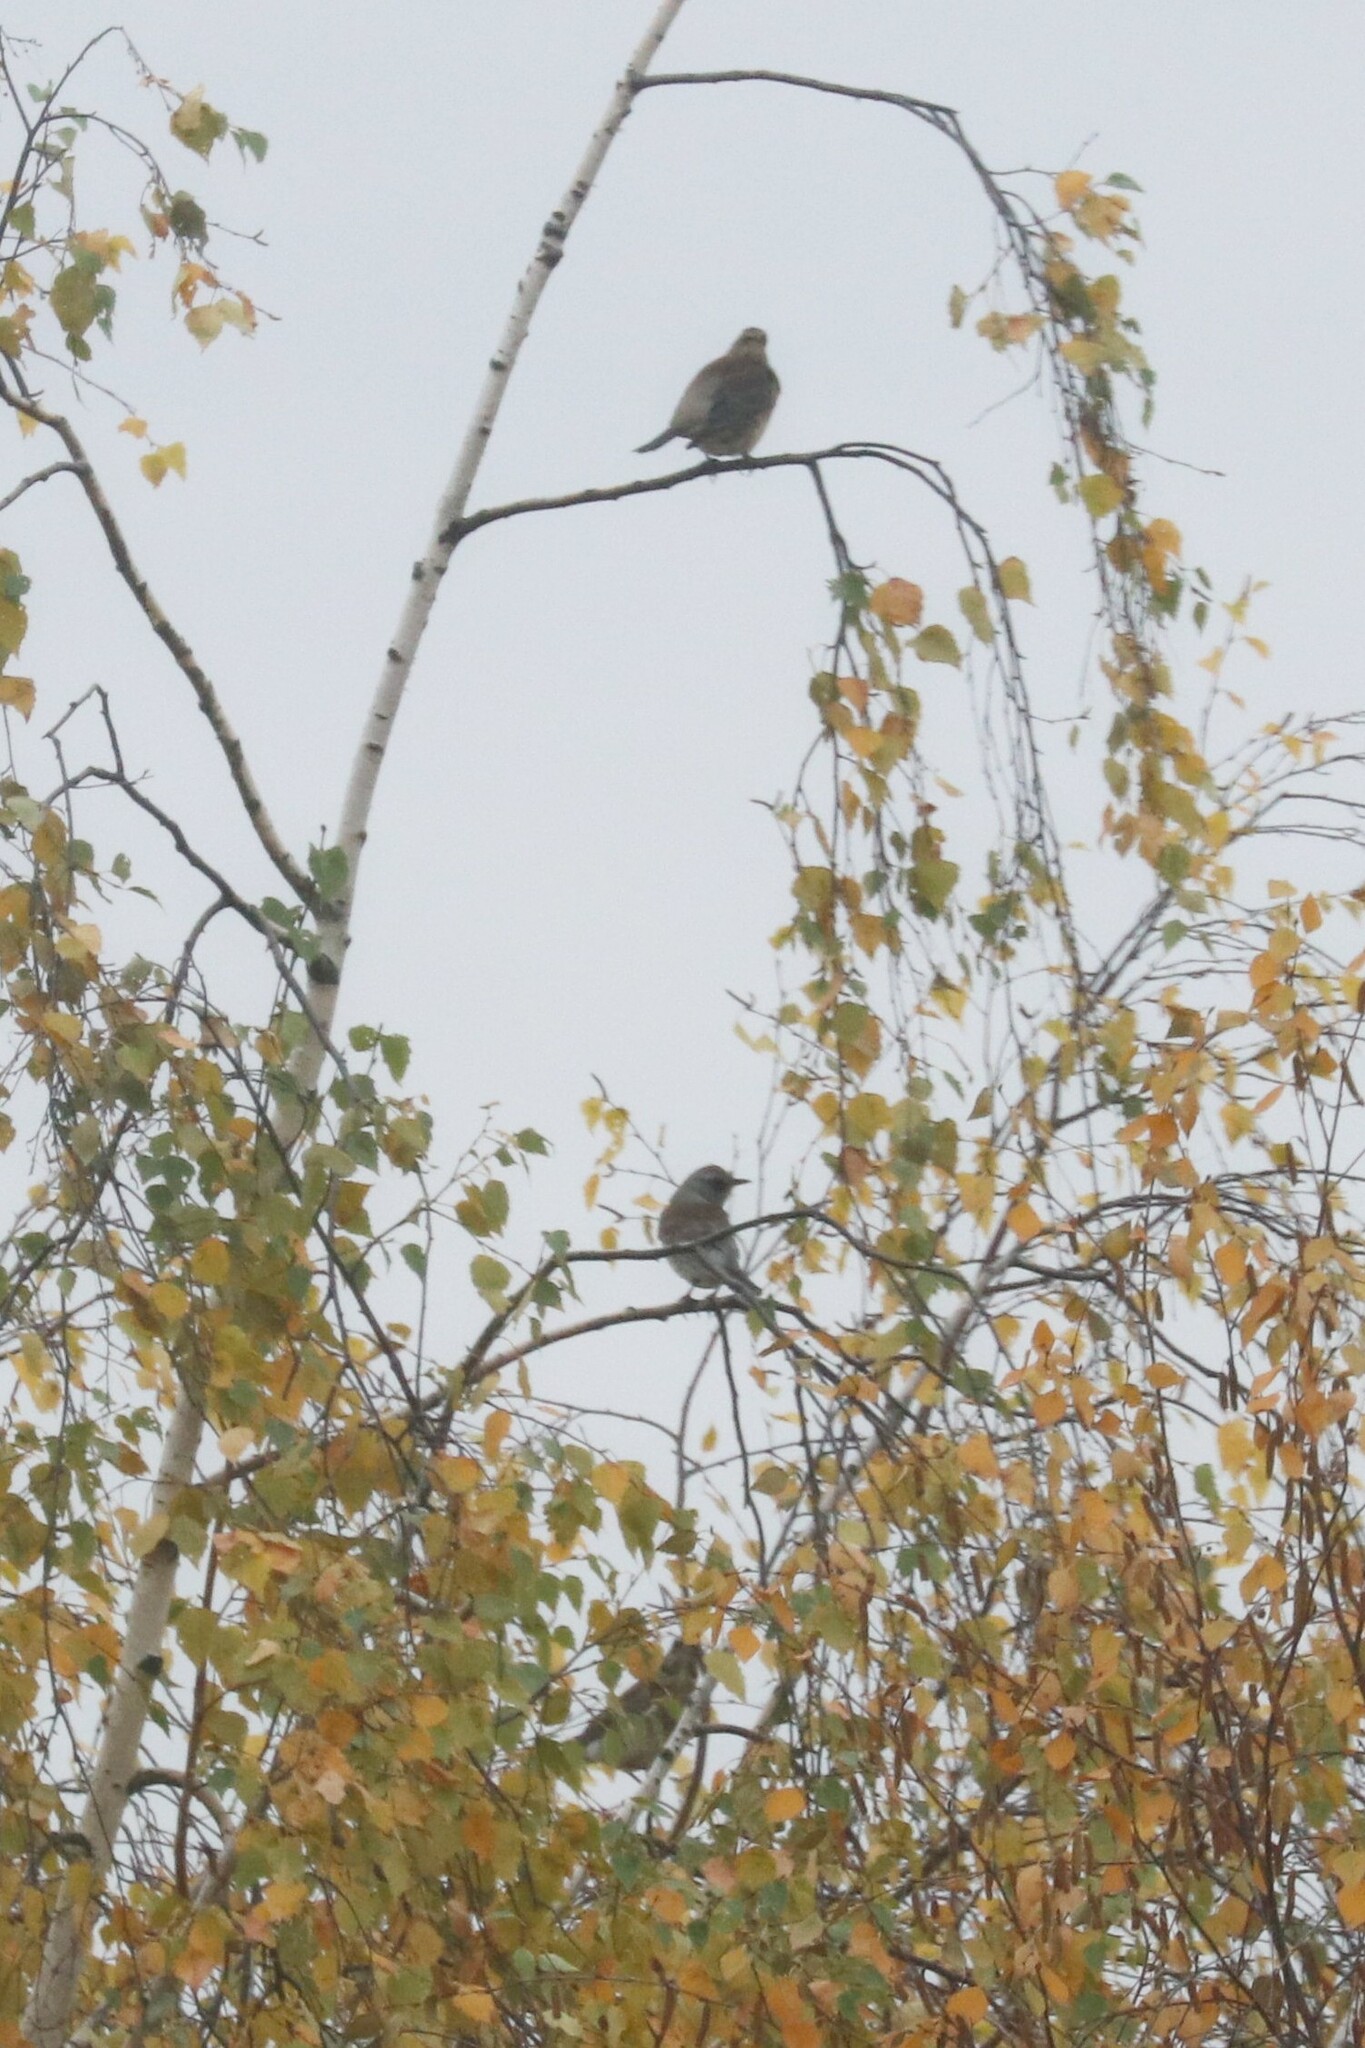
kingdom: Animalia
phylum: Chordata
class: Aves
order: Passeriformes
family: Turdidae
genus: Turdus
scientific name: Turdus pilaris
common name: Fieldfare
